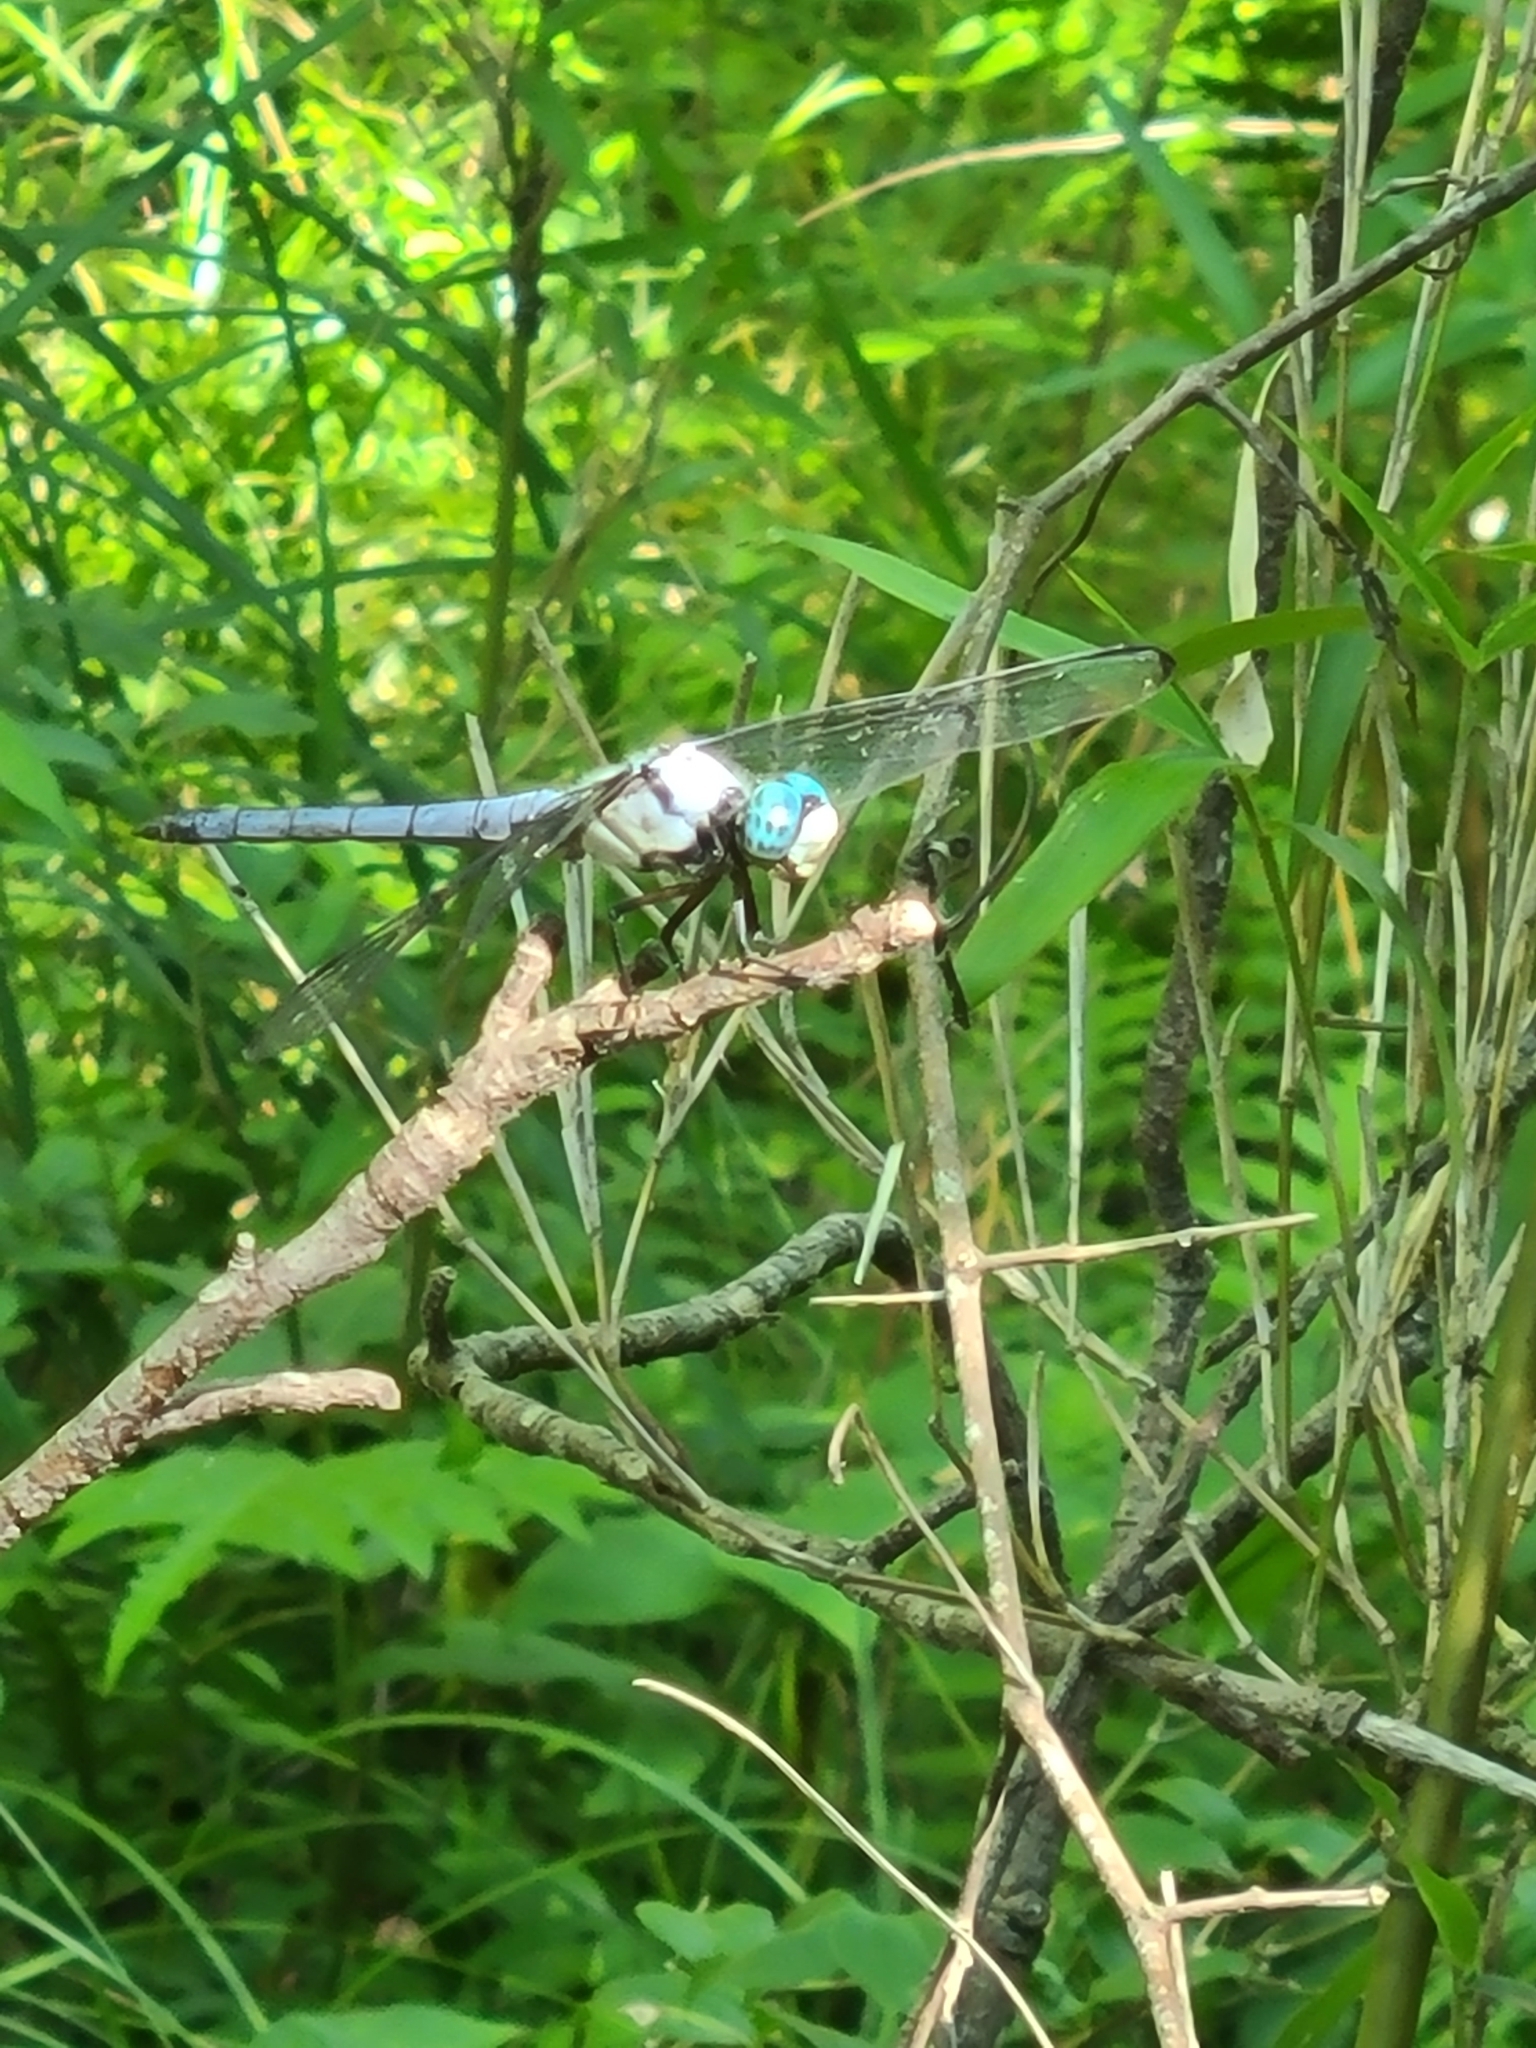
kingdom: Animalia
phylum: Arthropoda
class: Insecta
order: Odonata
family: Libellulidae
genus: Libellula
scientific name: Libellula vibrans
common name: Great blue skimmer
